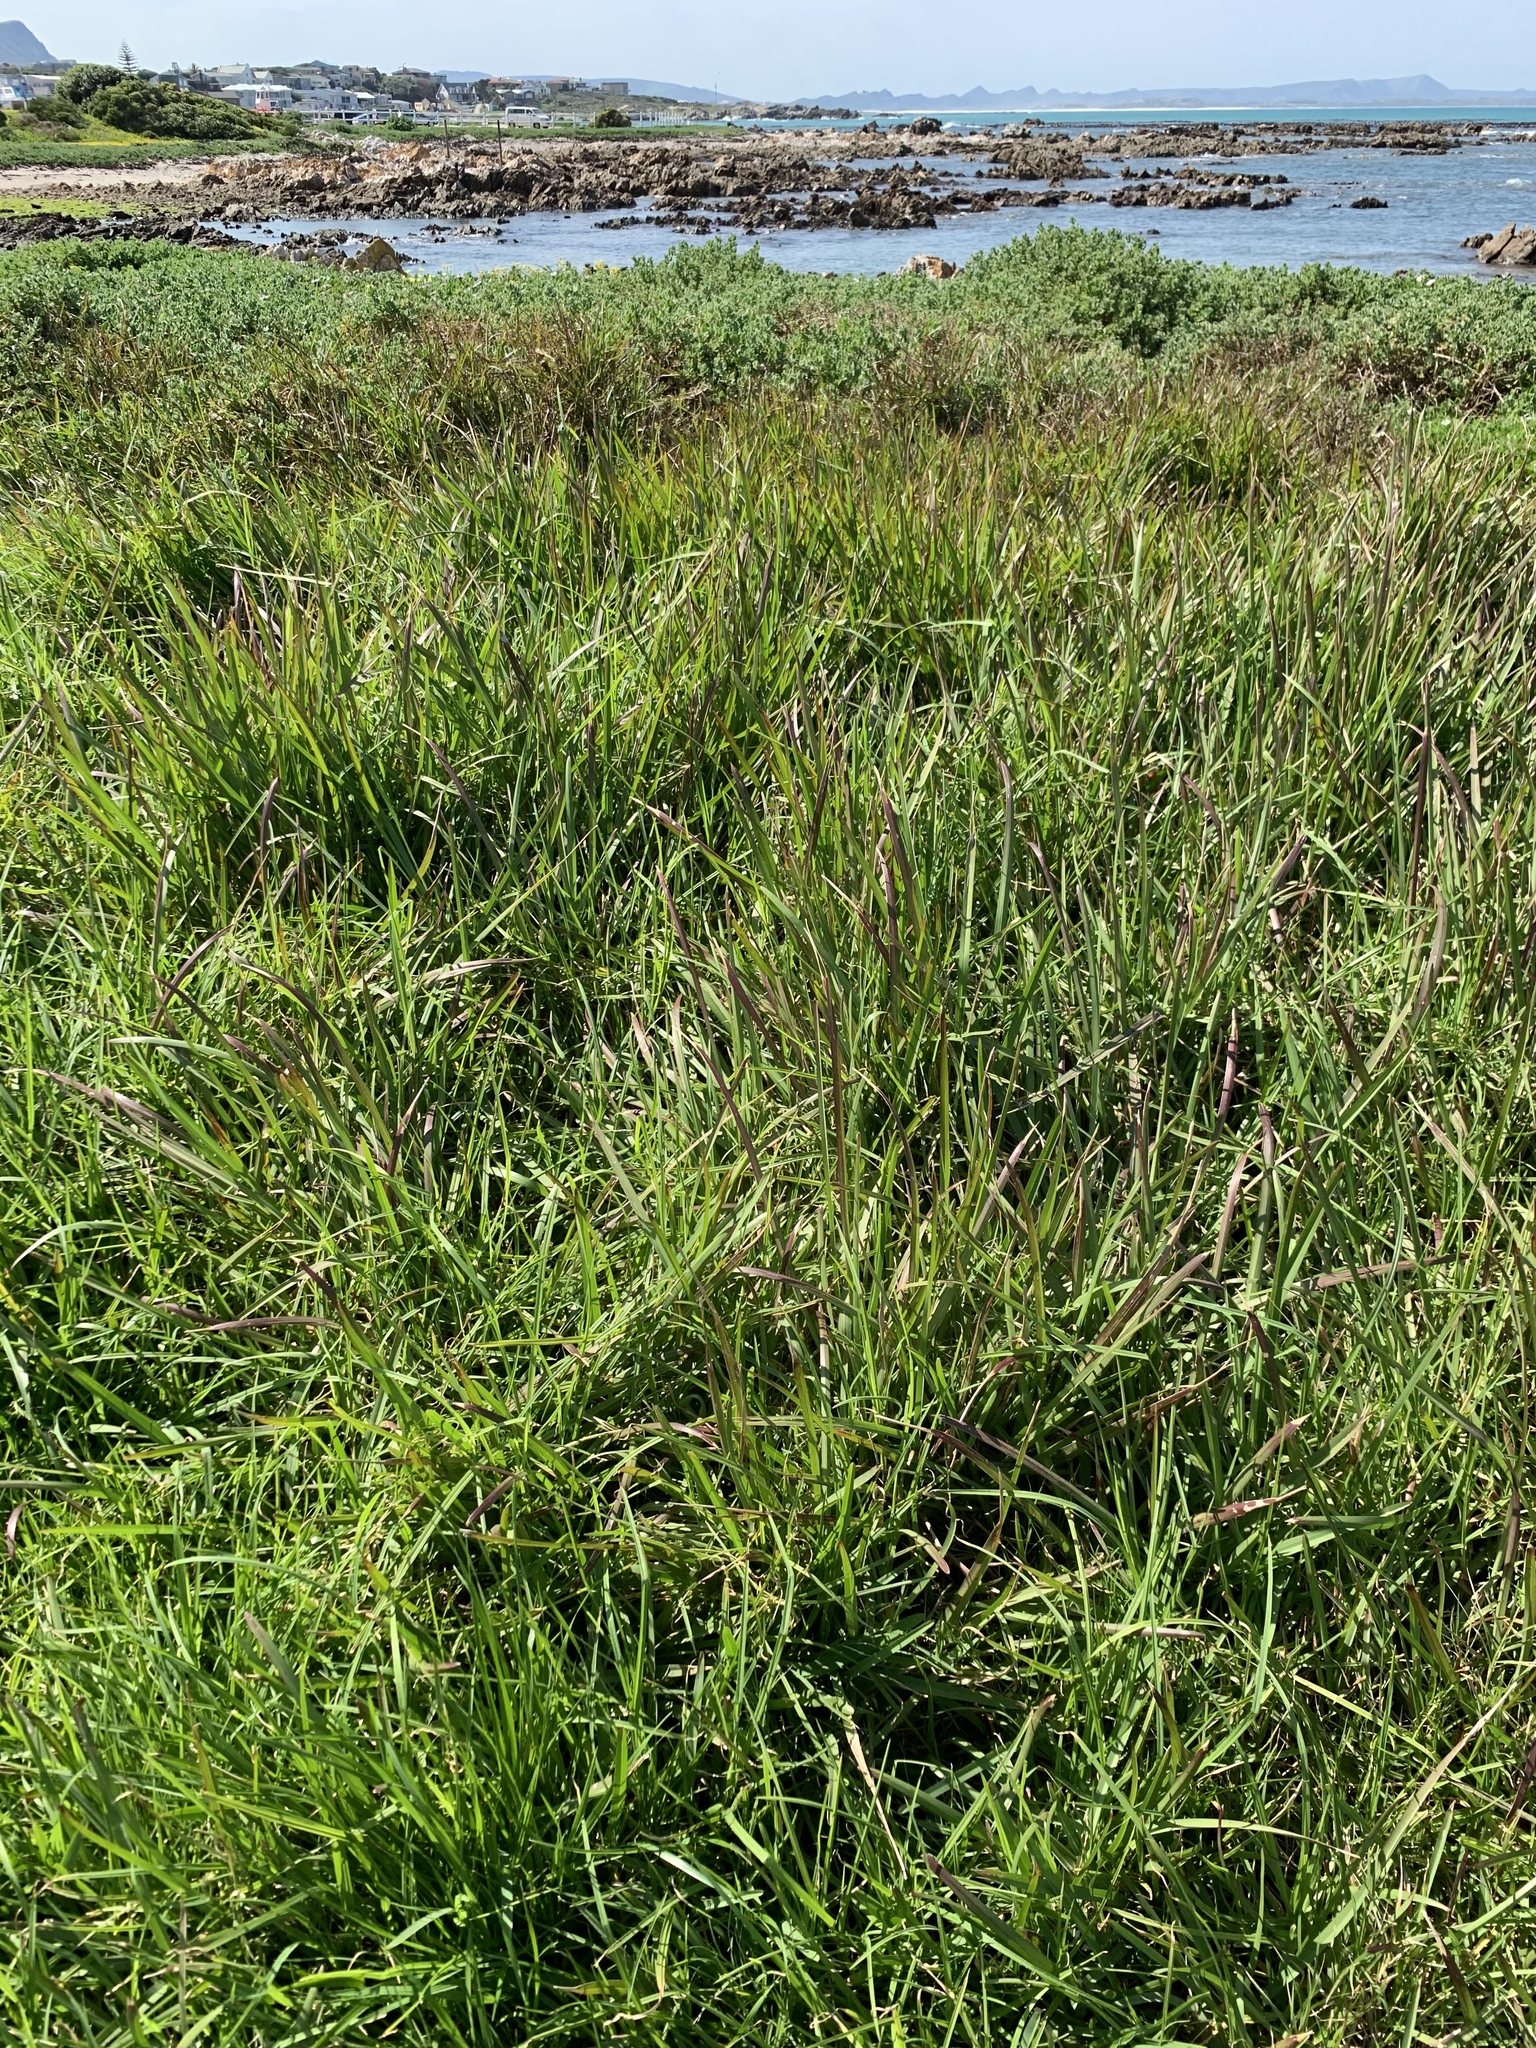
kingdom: Plantae
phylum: Tracheophyta
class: Liliopsida
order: Poales
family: Poaceae
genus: Stenotaphrum
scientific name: Stenotaphrum secundatum
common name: St. augustine grass
